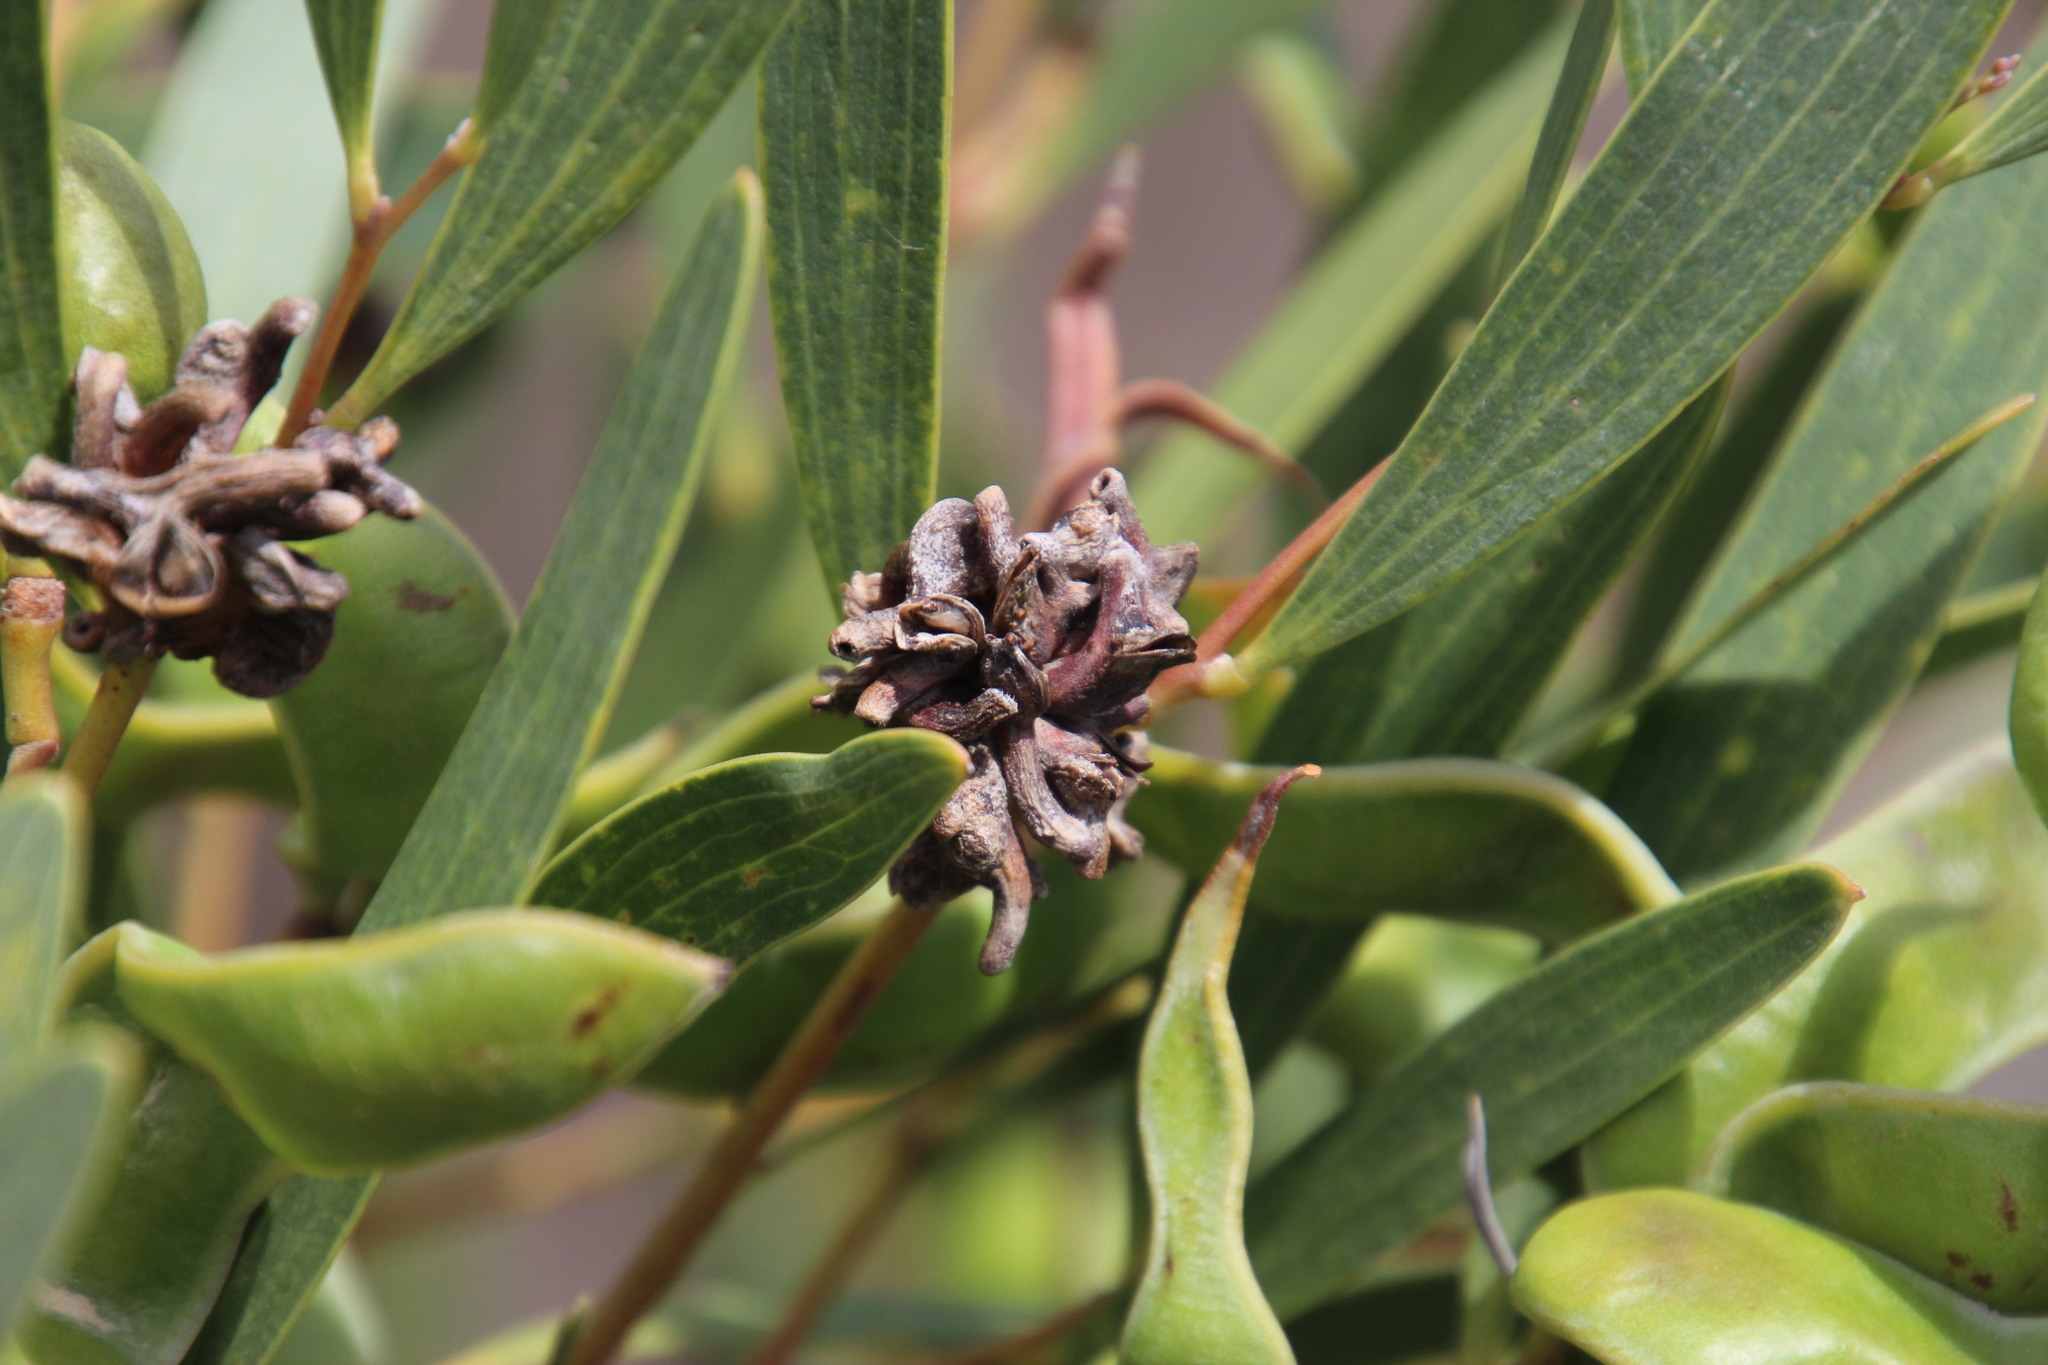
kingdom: Animalia
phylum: Arthropoda
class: Insecta
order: Diptera
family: Cecidomyiidae
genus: Dasineura
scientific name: Dasineura dielsi
